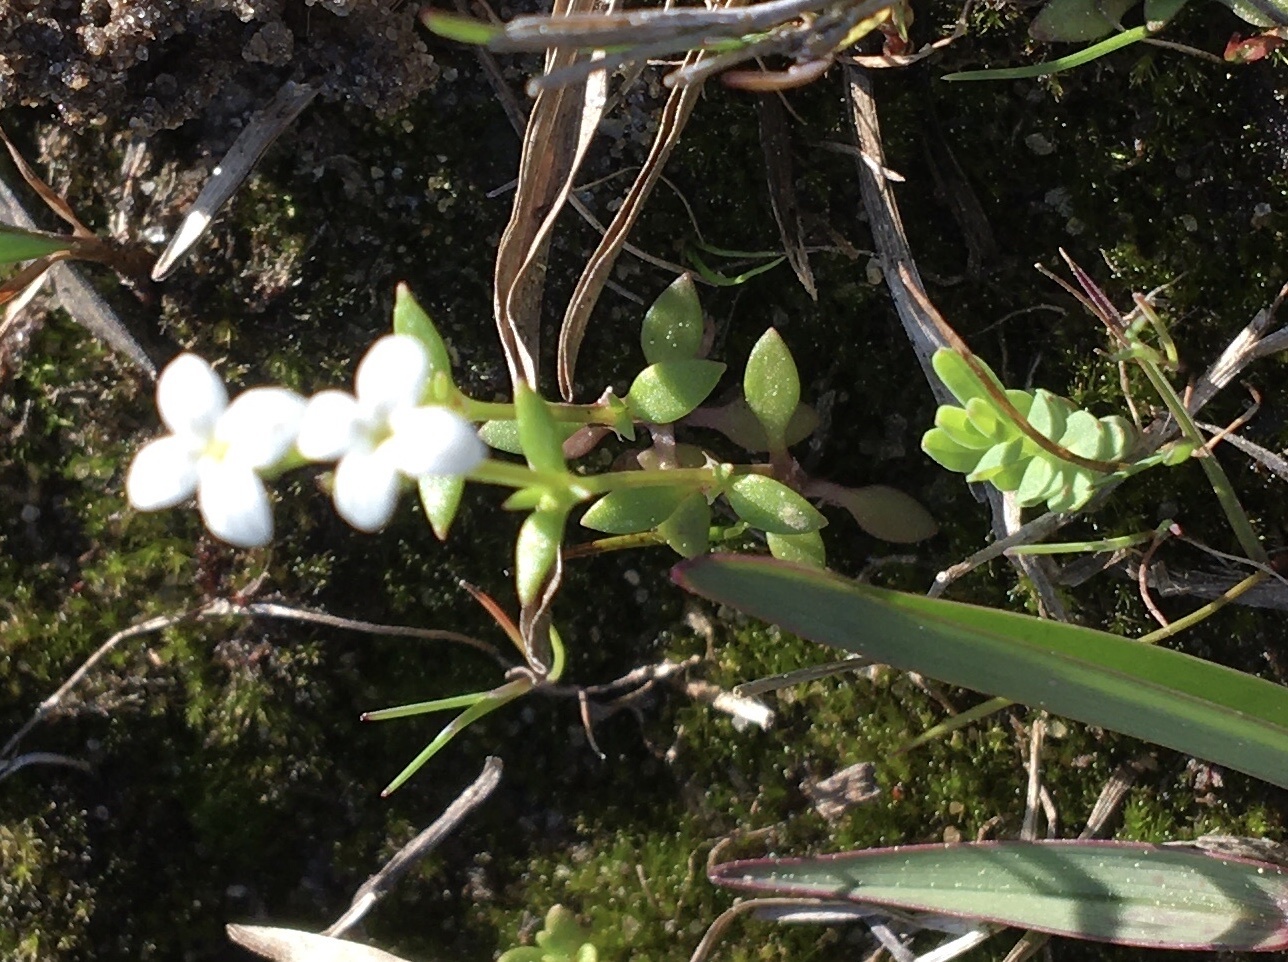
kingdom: Plantae
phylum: Tracheophyta
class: Magnoliopsida
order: Gentianales
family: Rubiaceae
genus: Houstonia
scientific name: Houstonia micrantha
